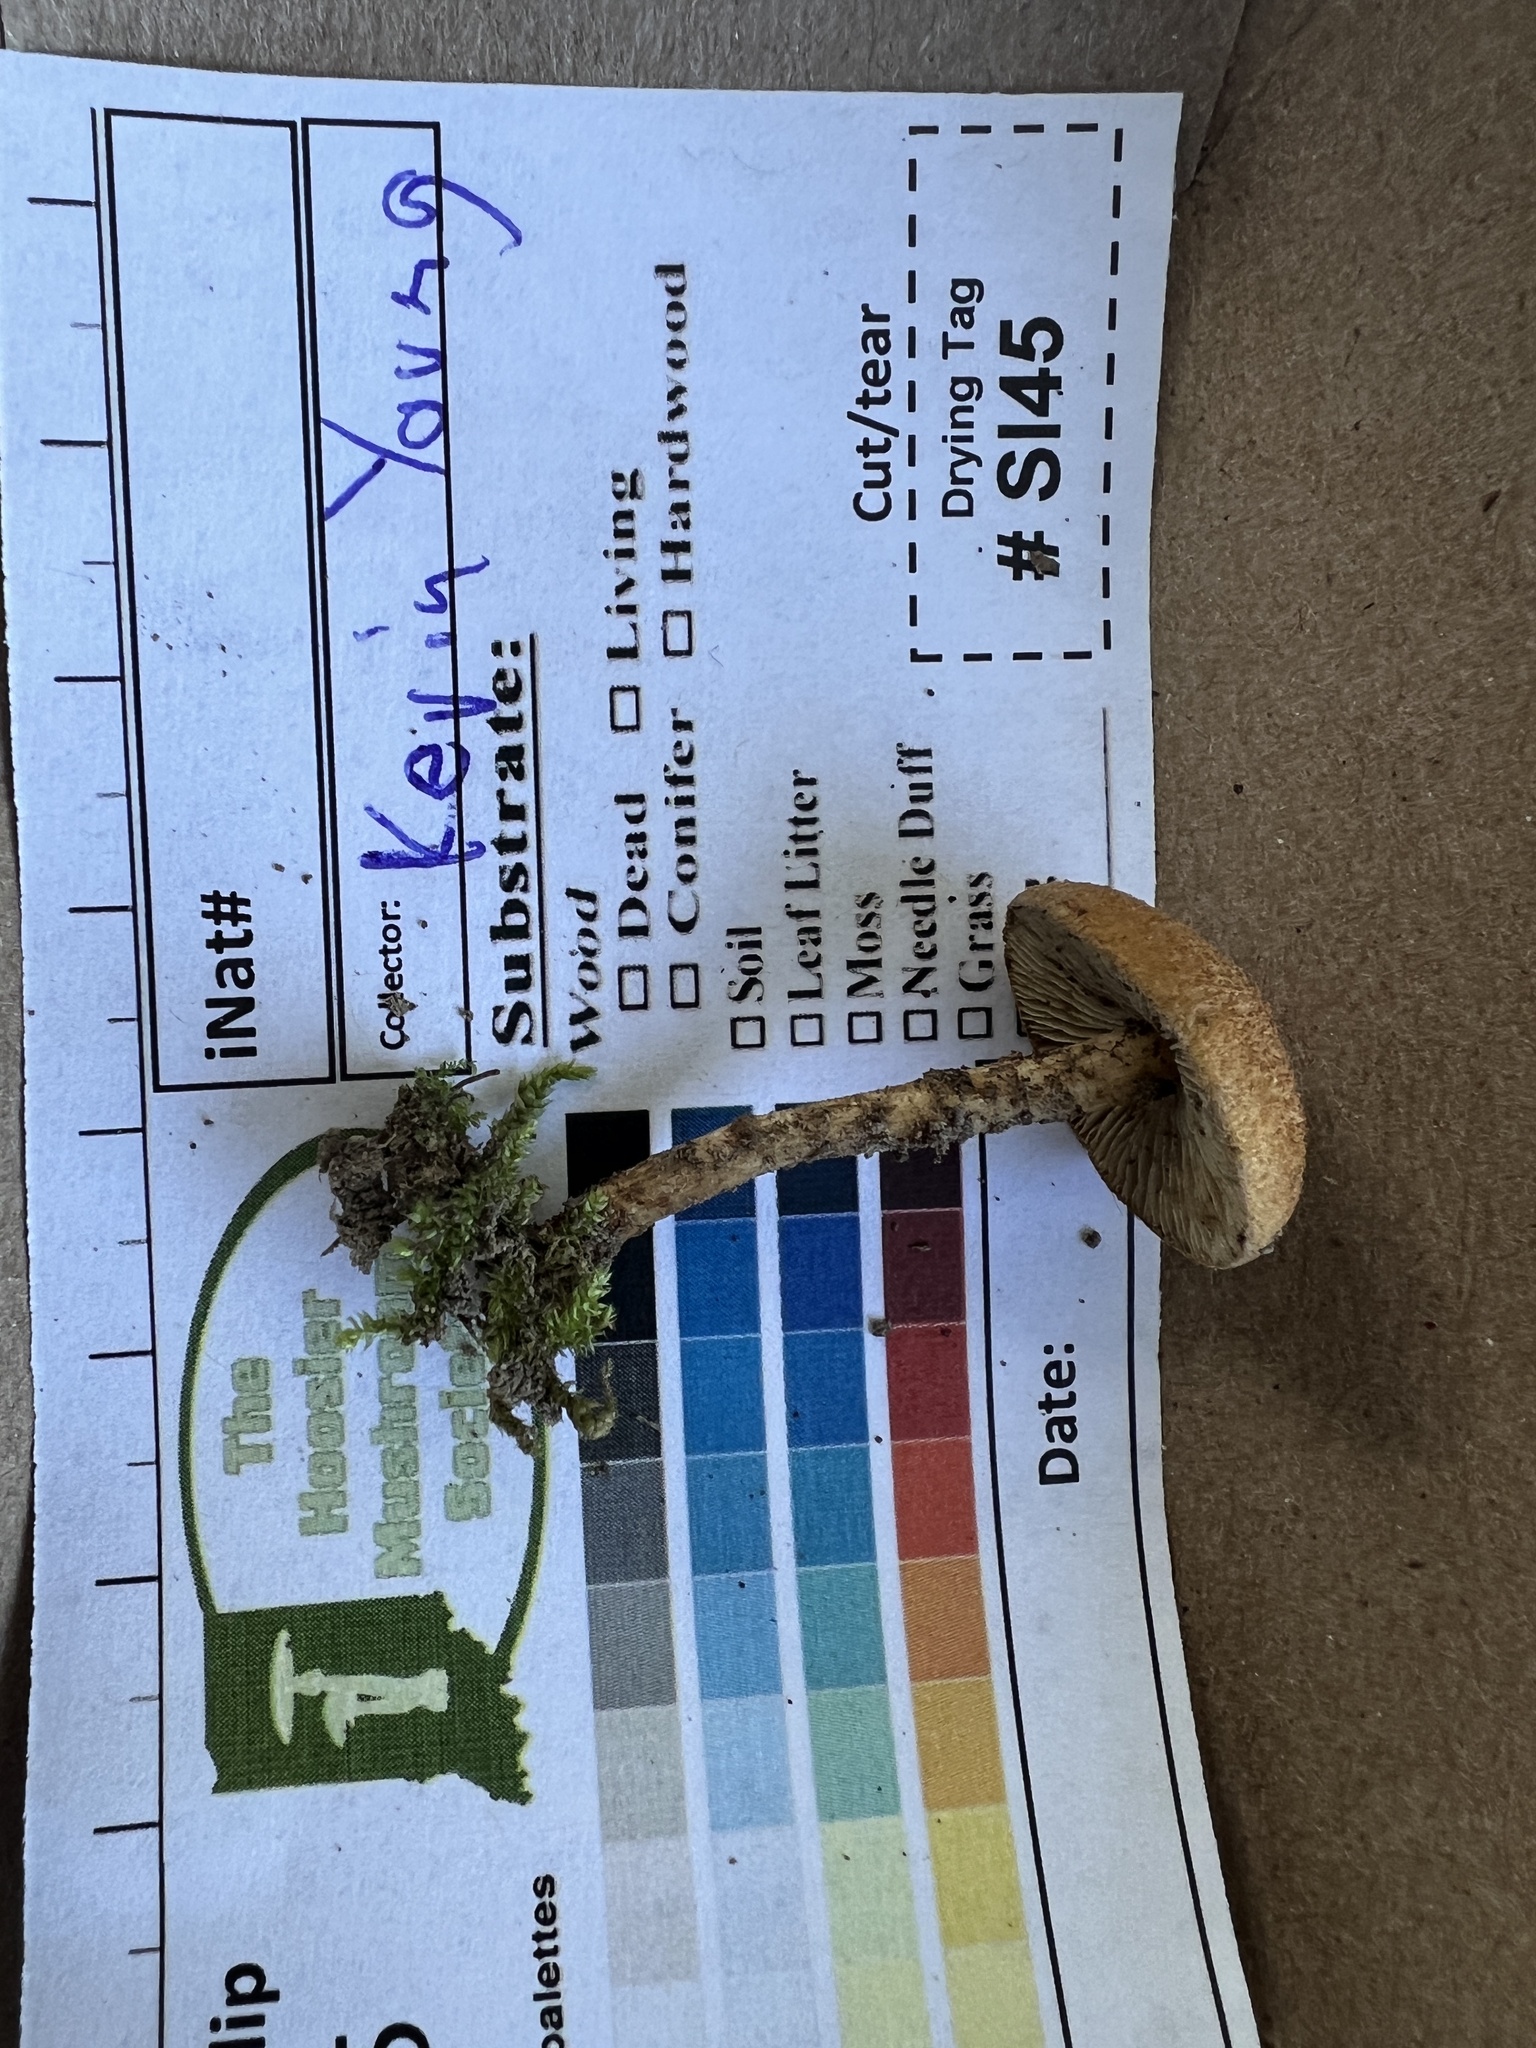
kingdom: Fungi
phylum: Basidiomycota
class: Agaricomycetes
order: Agaricales
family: Inocybaceae
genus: Mallocybe
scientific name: Mallocybe unicolor
